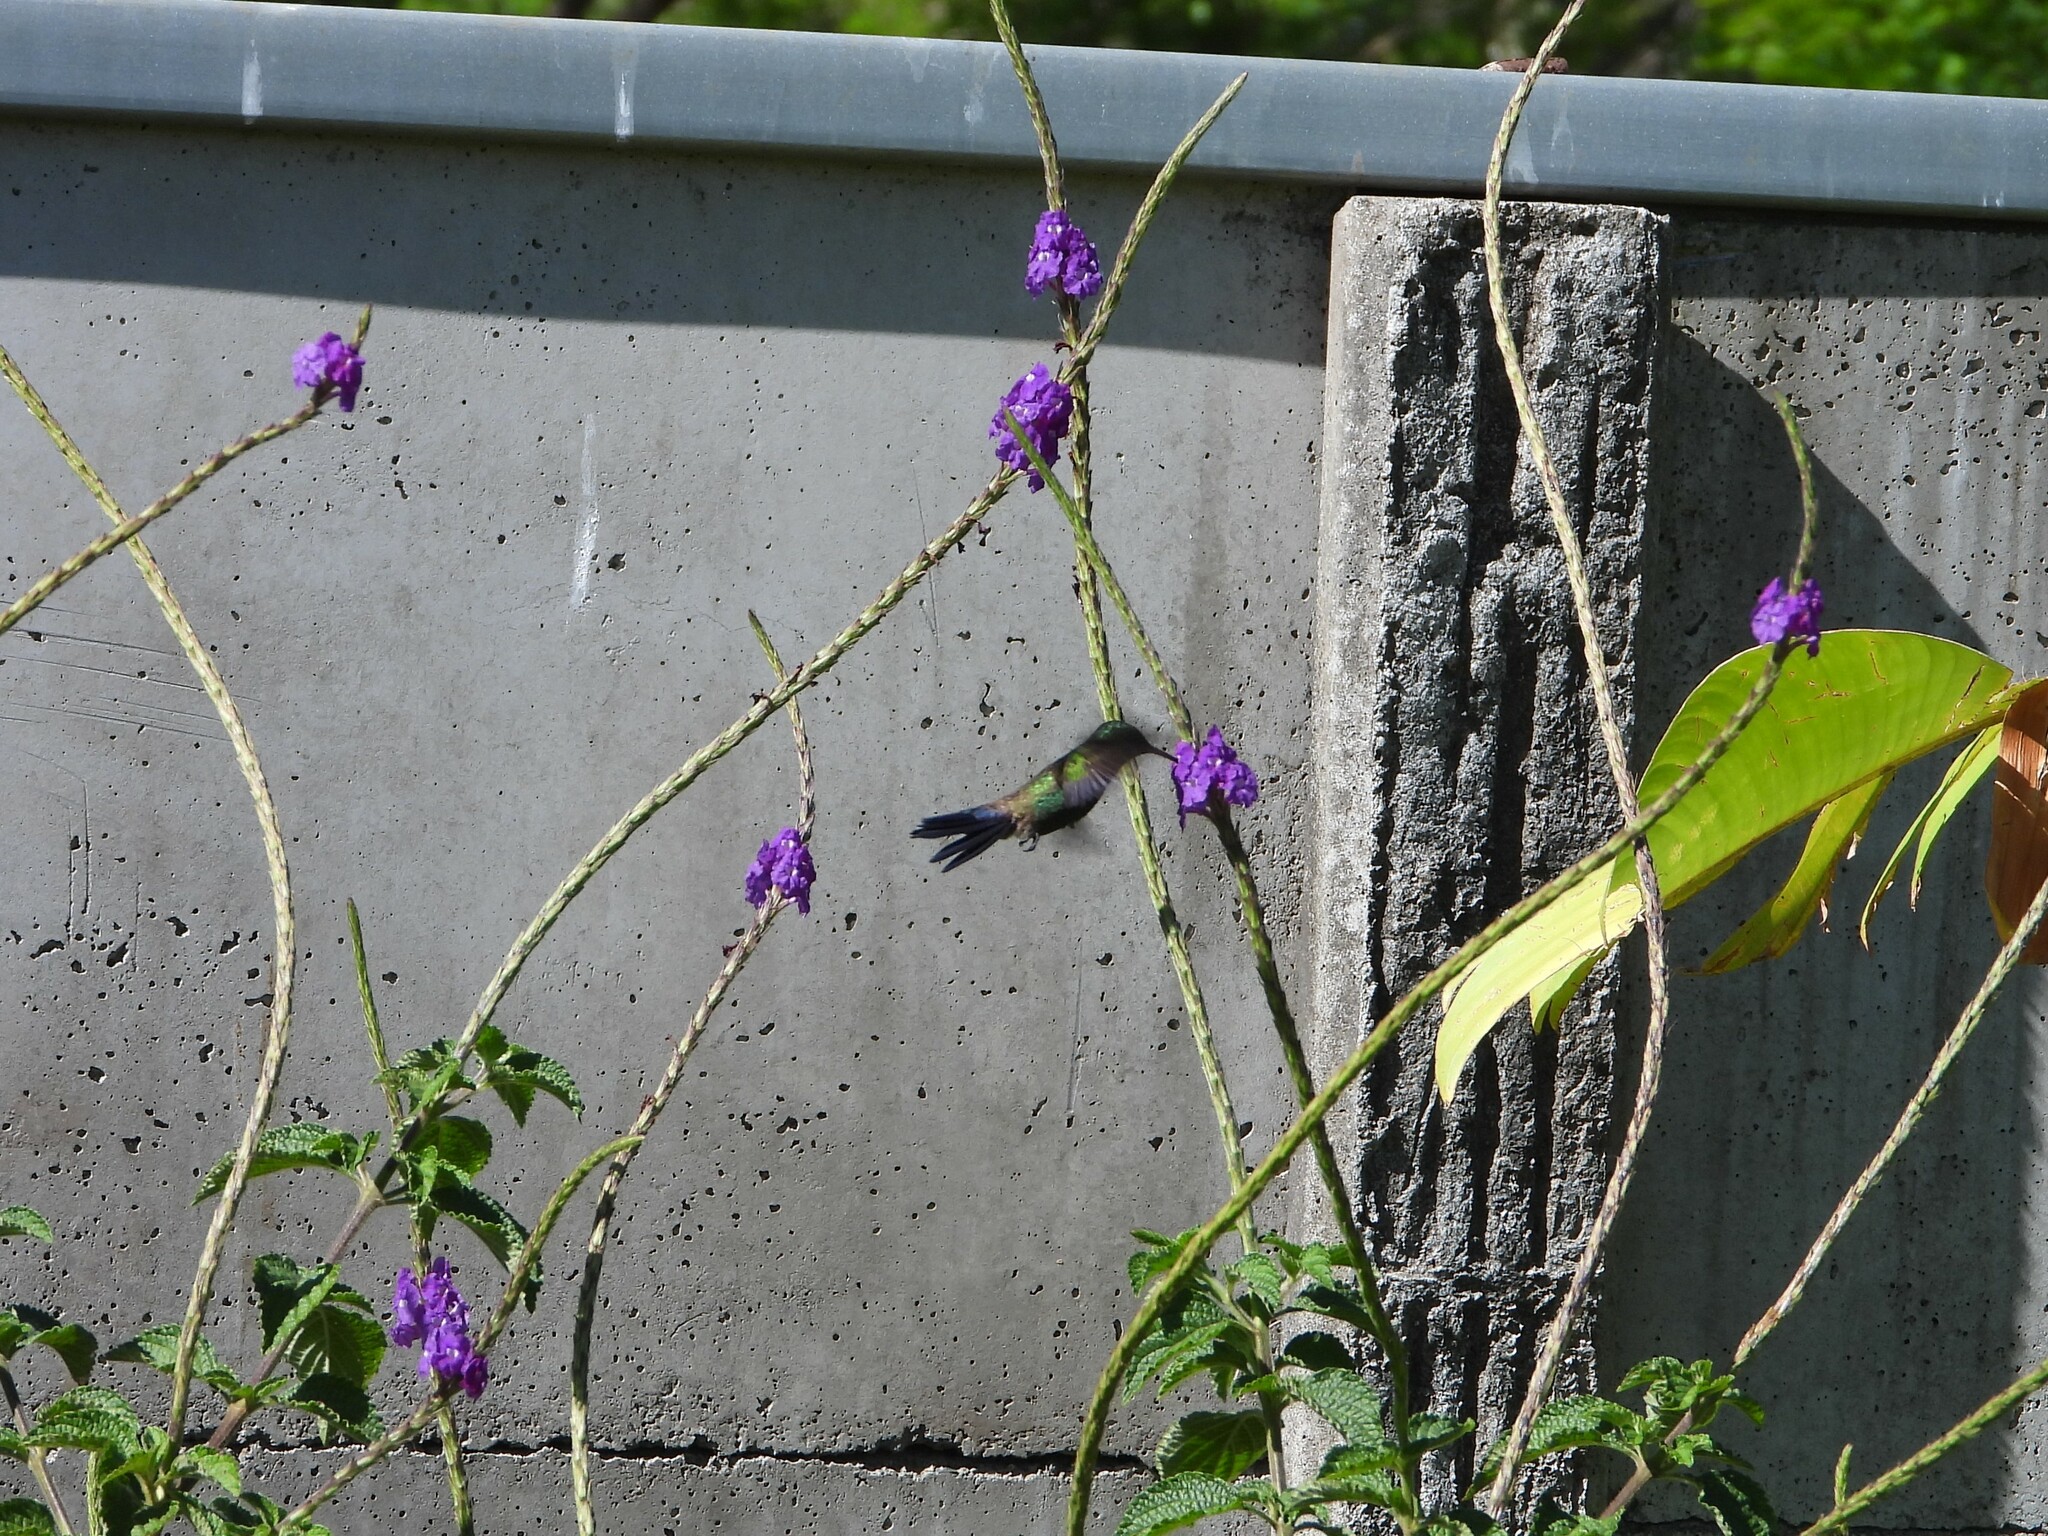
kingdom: Animalia
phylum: Chordata
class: Aves
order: Apodiformes
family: Trochilidae
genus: Saucerottia
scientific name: Saucerottia hoffmanni
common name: Blue-vented hummingbird
